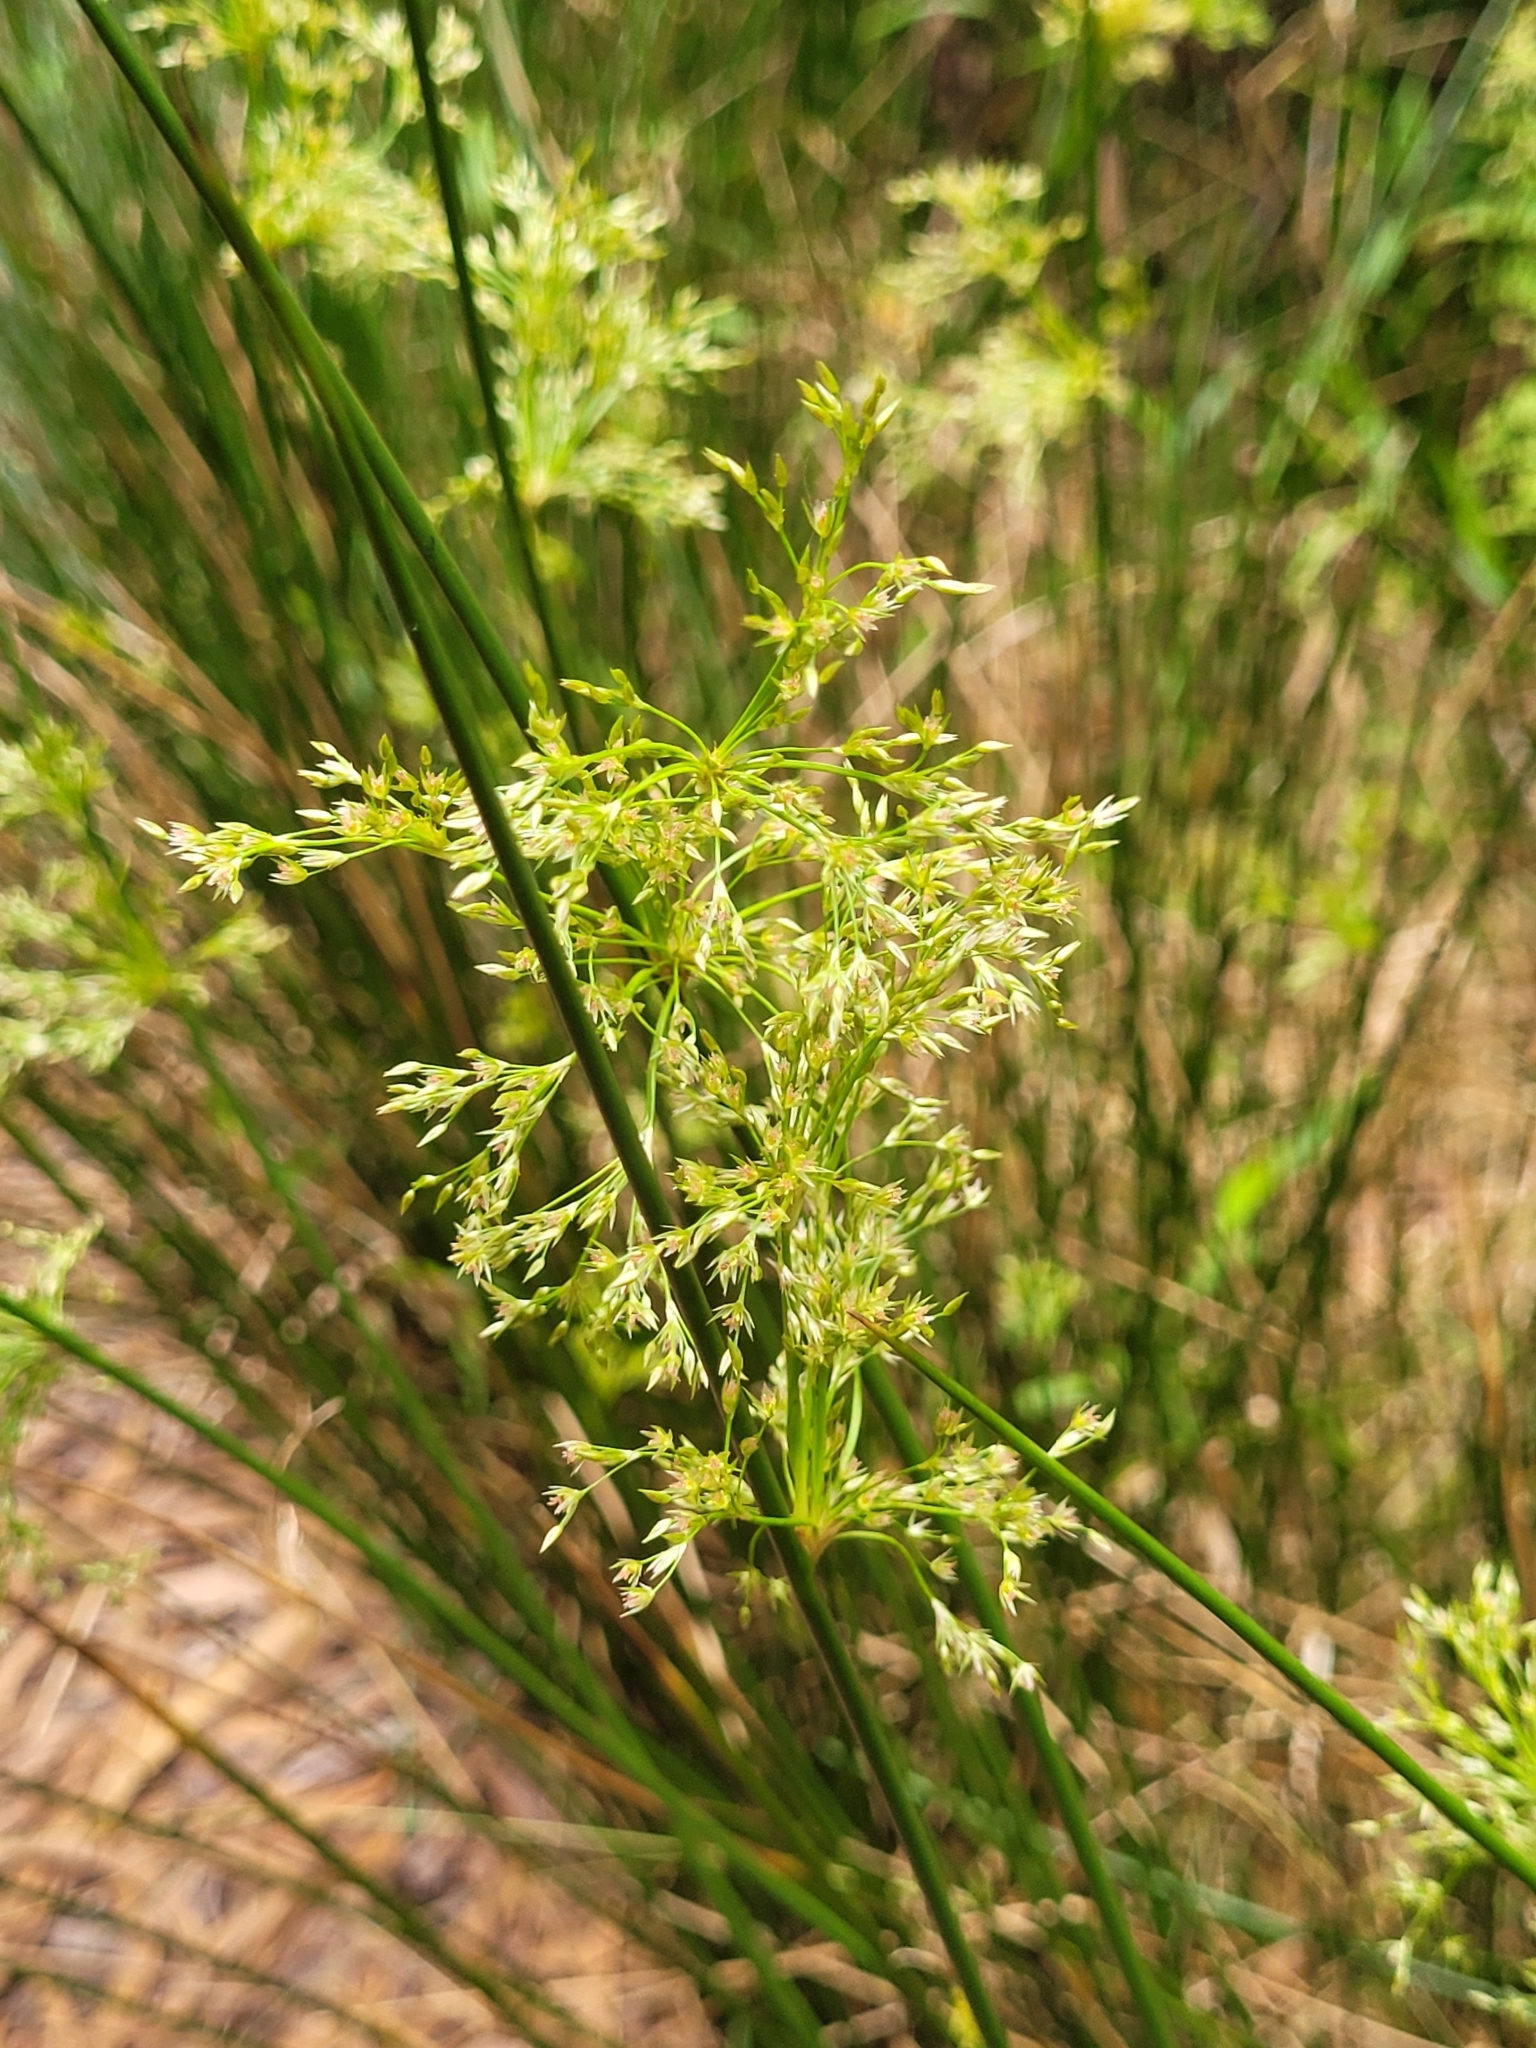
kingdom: Plantae
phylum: Tracheophyta
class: Liliopsida
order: Poales
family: Juncaceae
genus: Juncus
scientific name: Juncus effusus
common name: Soft rush
